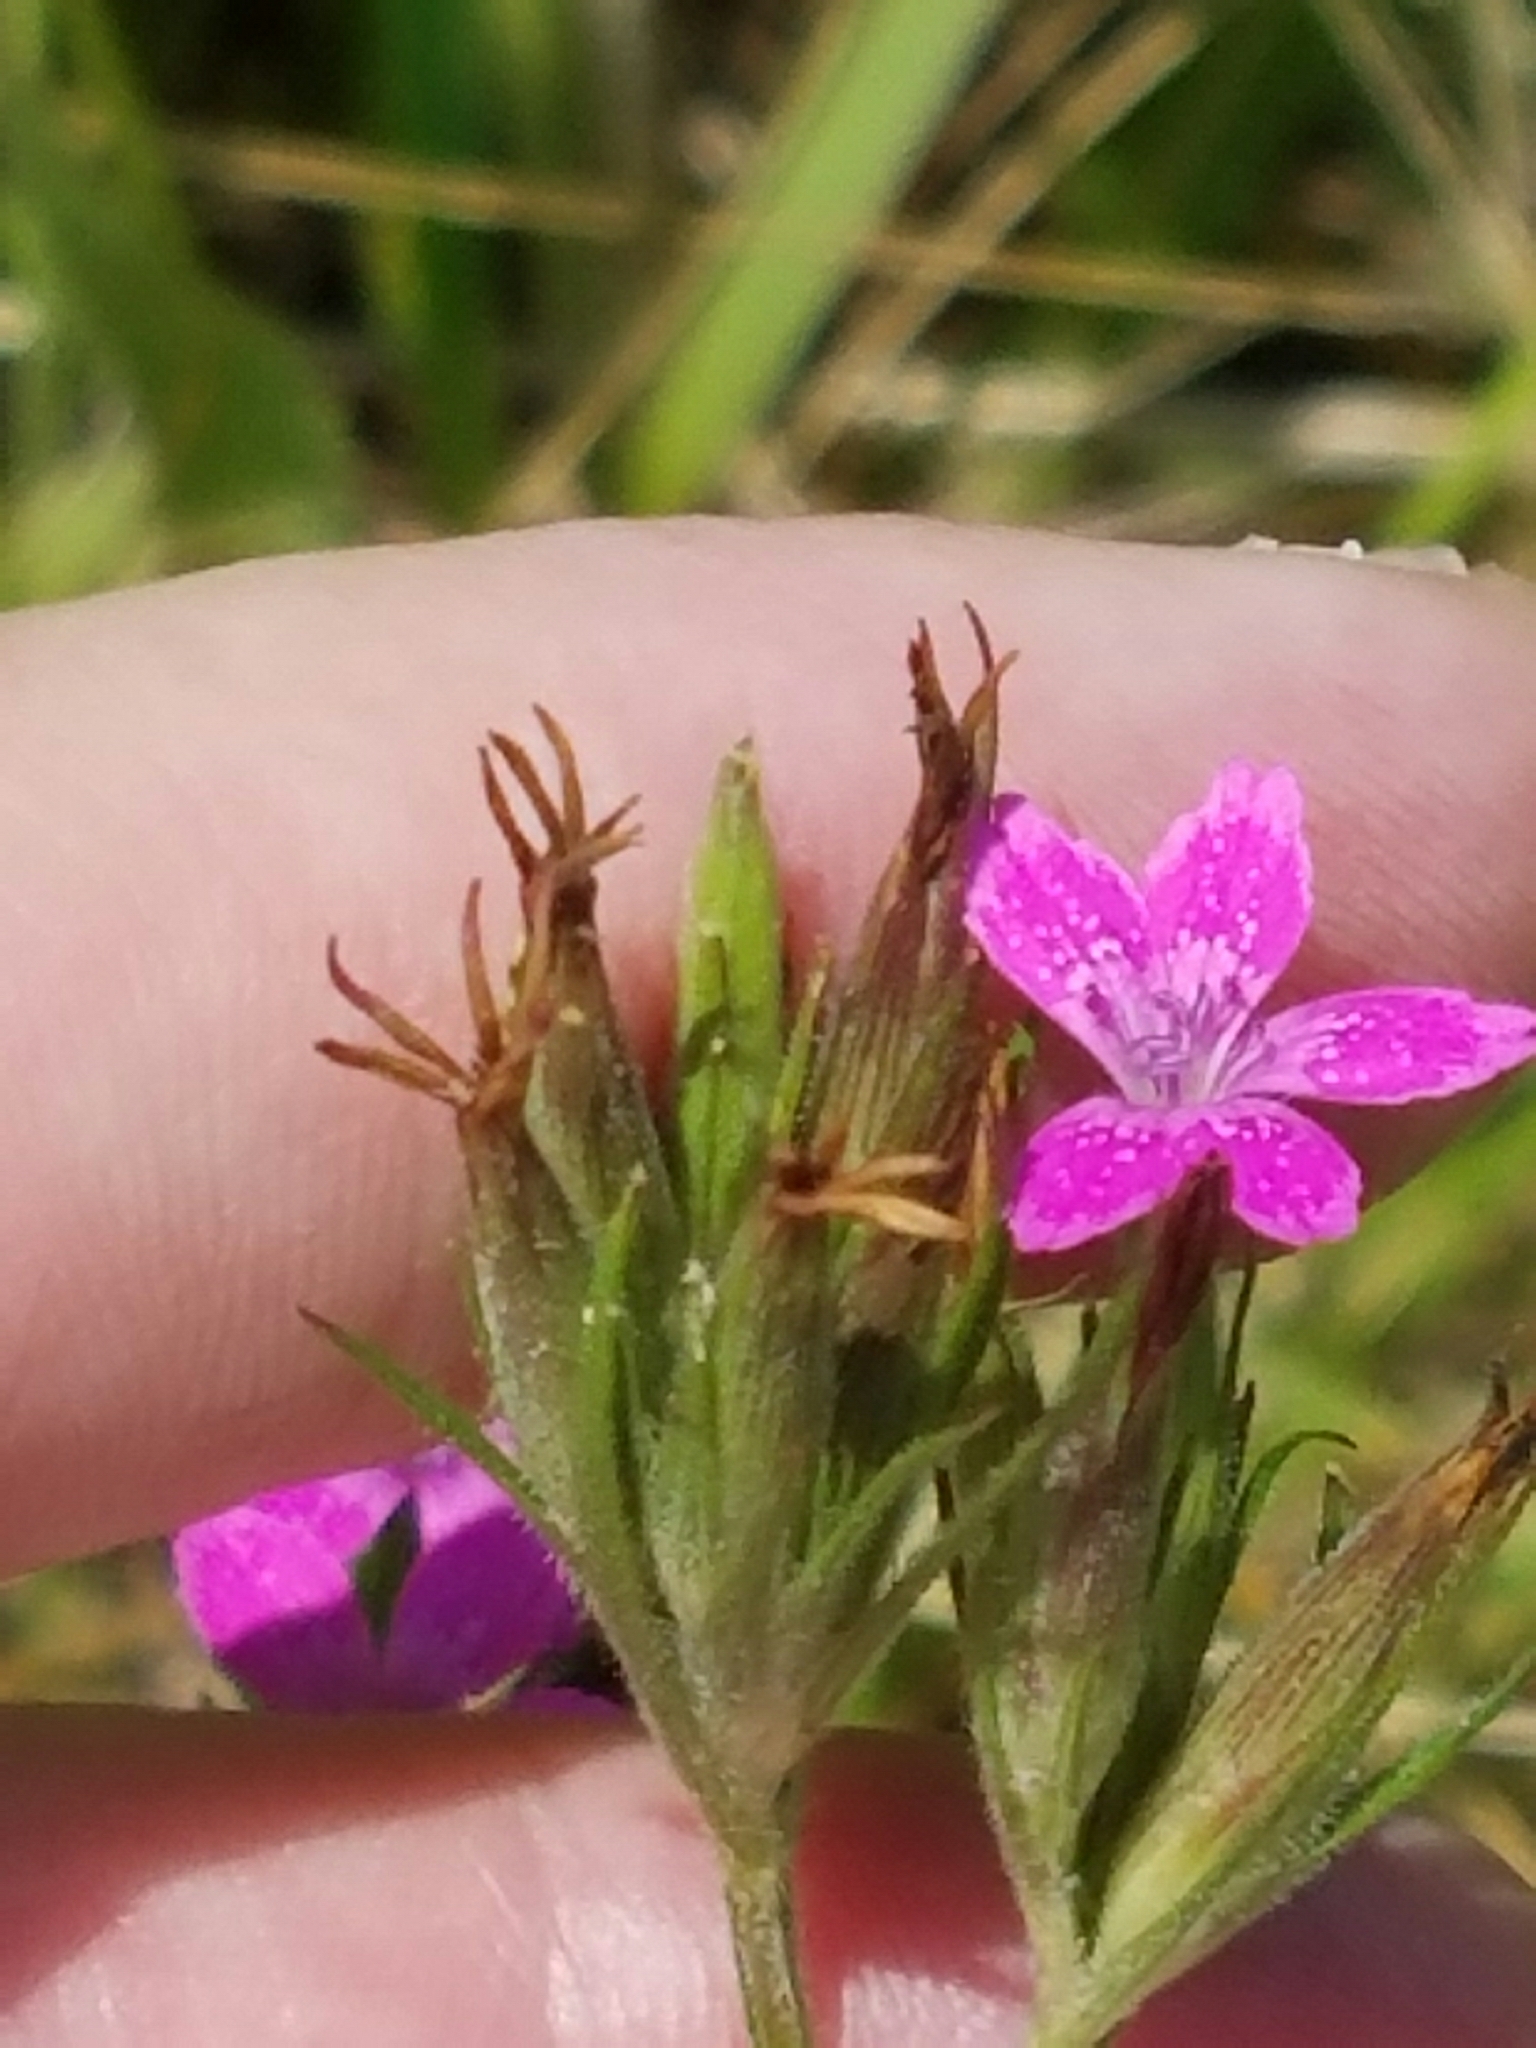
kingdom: Plantae
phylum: Tracheophyta
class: Magnoliopsida
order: Caryophyllales
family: Caryophyllaceae
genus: Dianthus
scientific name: Dianthus armeria
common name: Deptford pink
